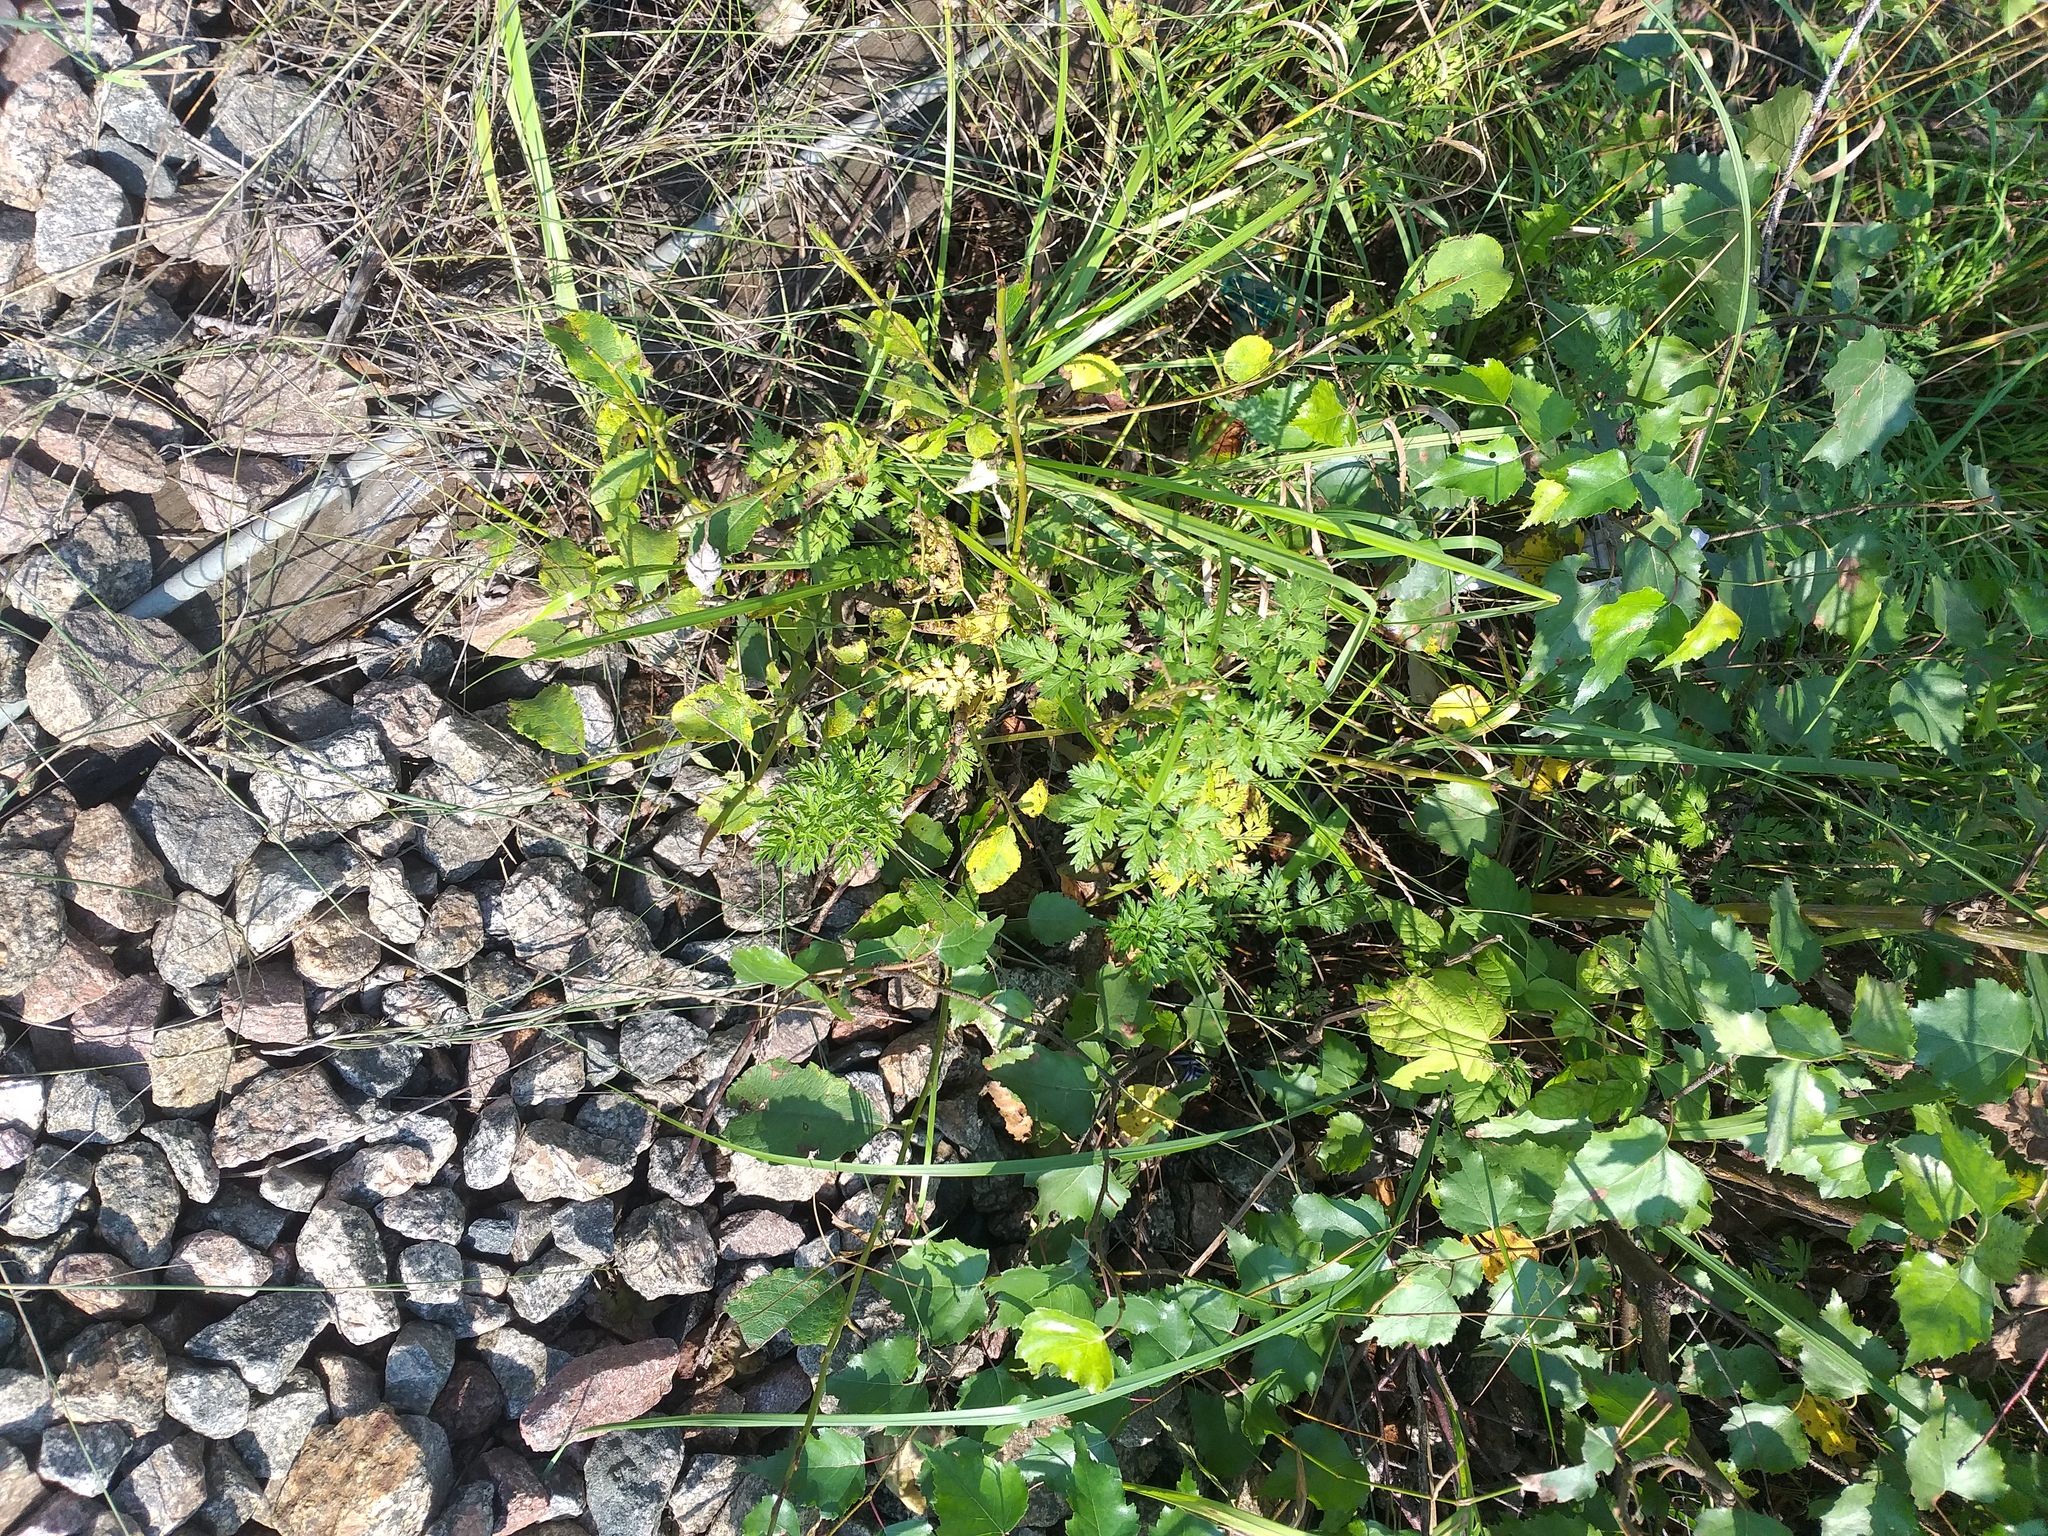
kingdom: Plantae
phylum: Tracheophyta
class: Magnoliopsida
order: Apiales
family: Apiaceae
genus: Anthriscus
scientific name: Anthriscus sylvestris
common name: Cow parsley
